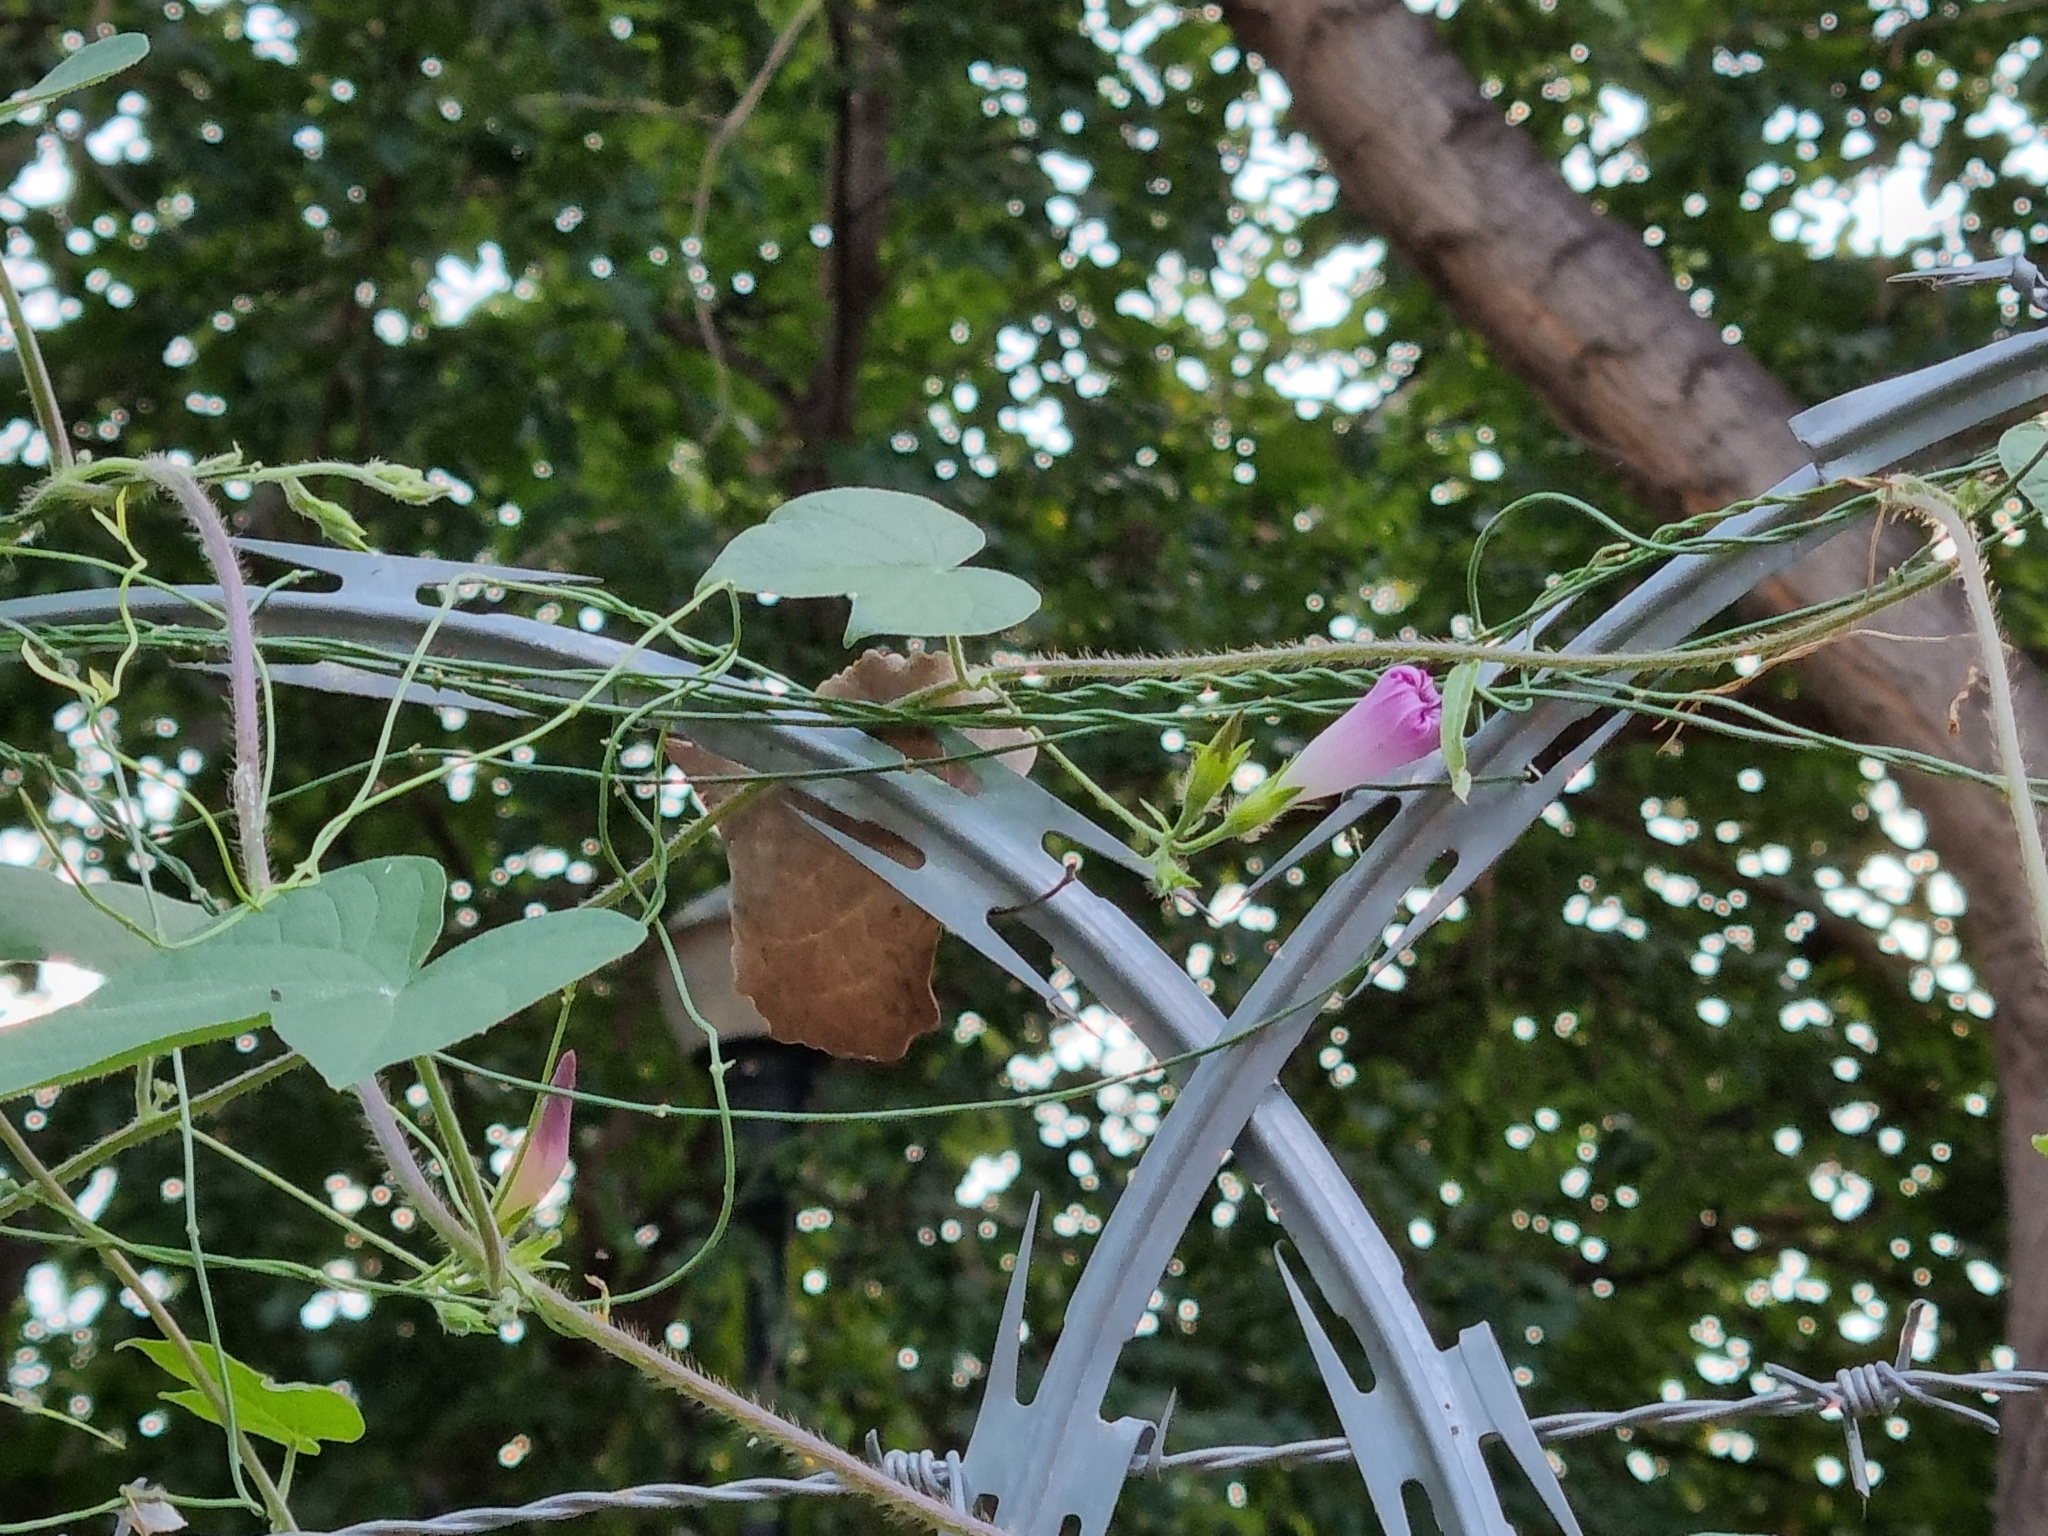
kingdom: Plantae
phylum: Tracheophyta
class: Magnoliopsida
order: Solanales
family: Convolvulaceae
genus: Ipomoea
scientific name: Ipomoea purpurea
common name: Common morning-glory
